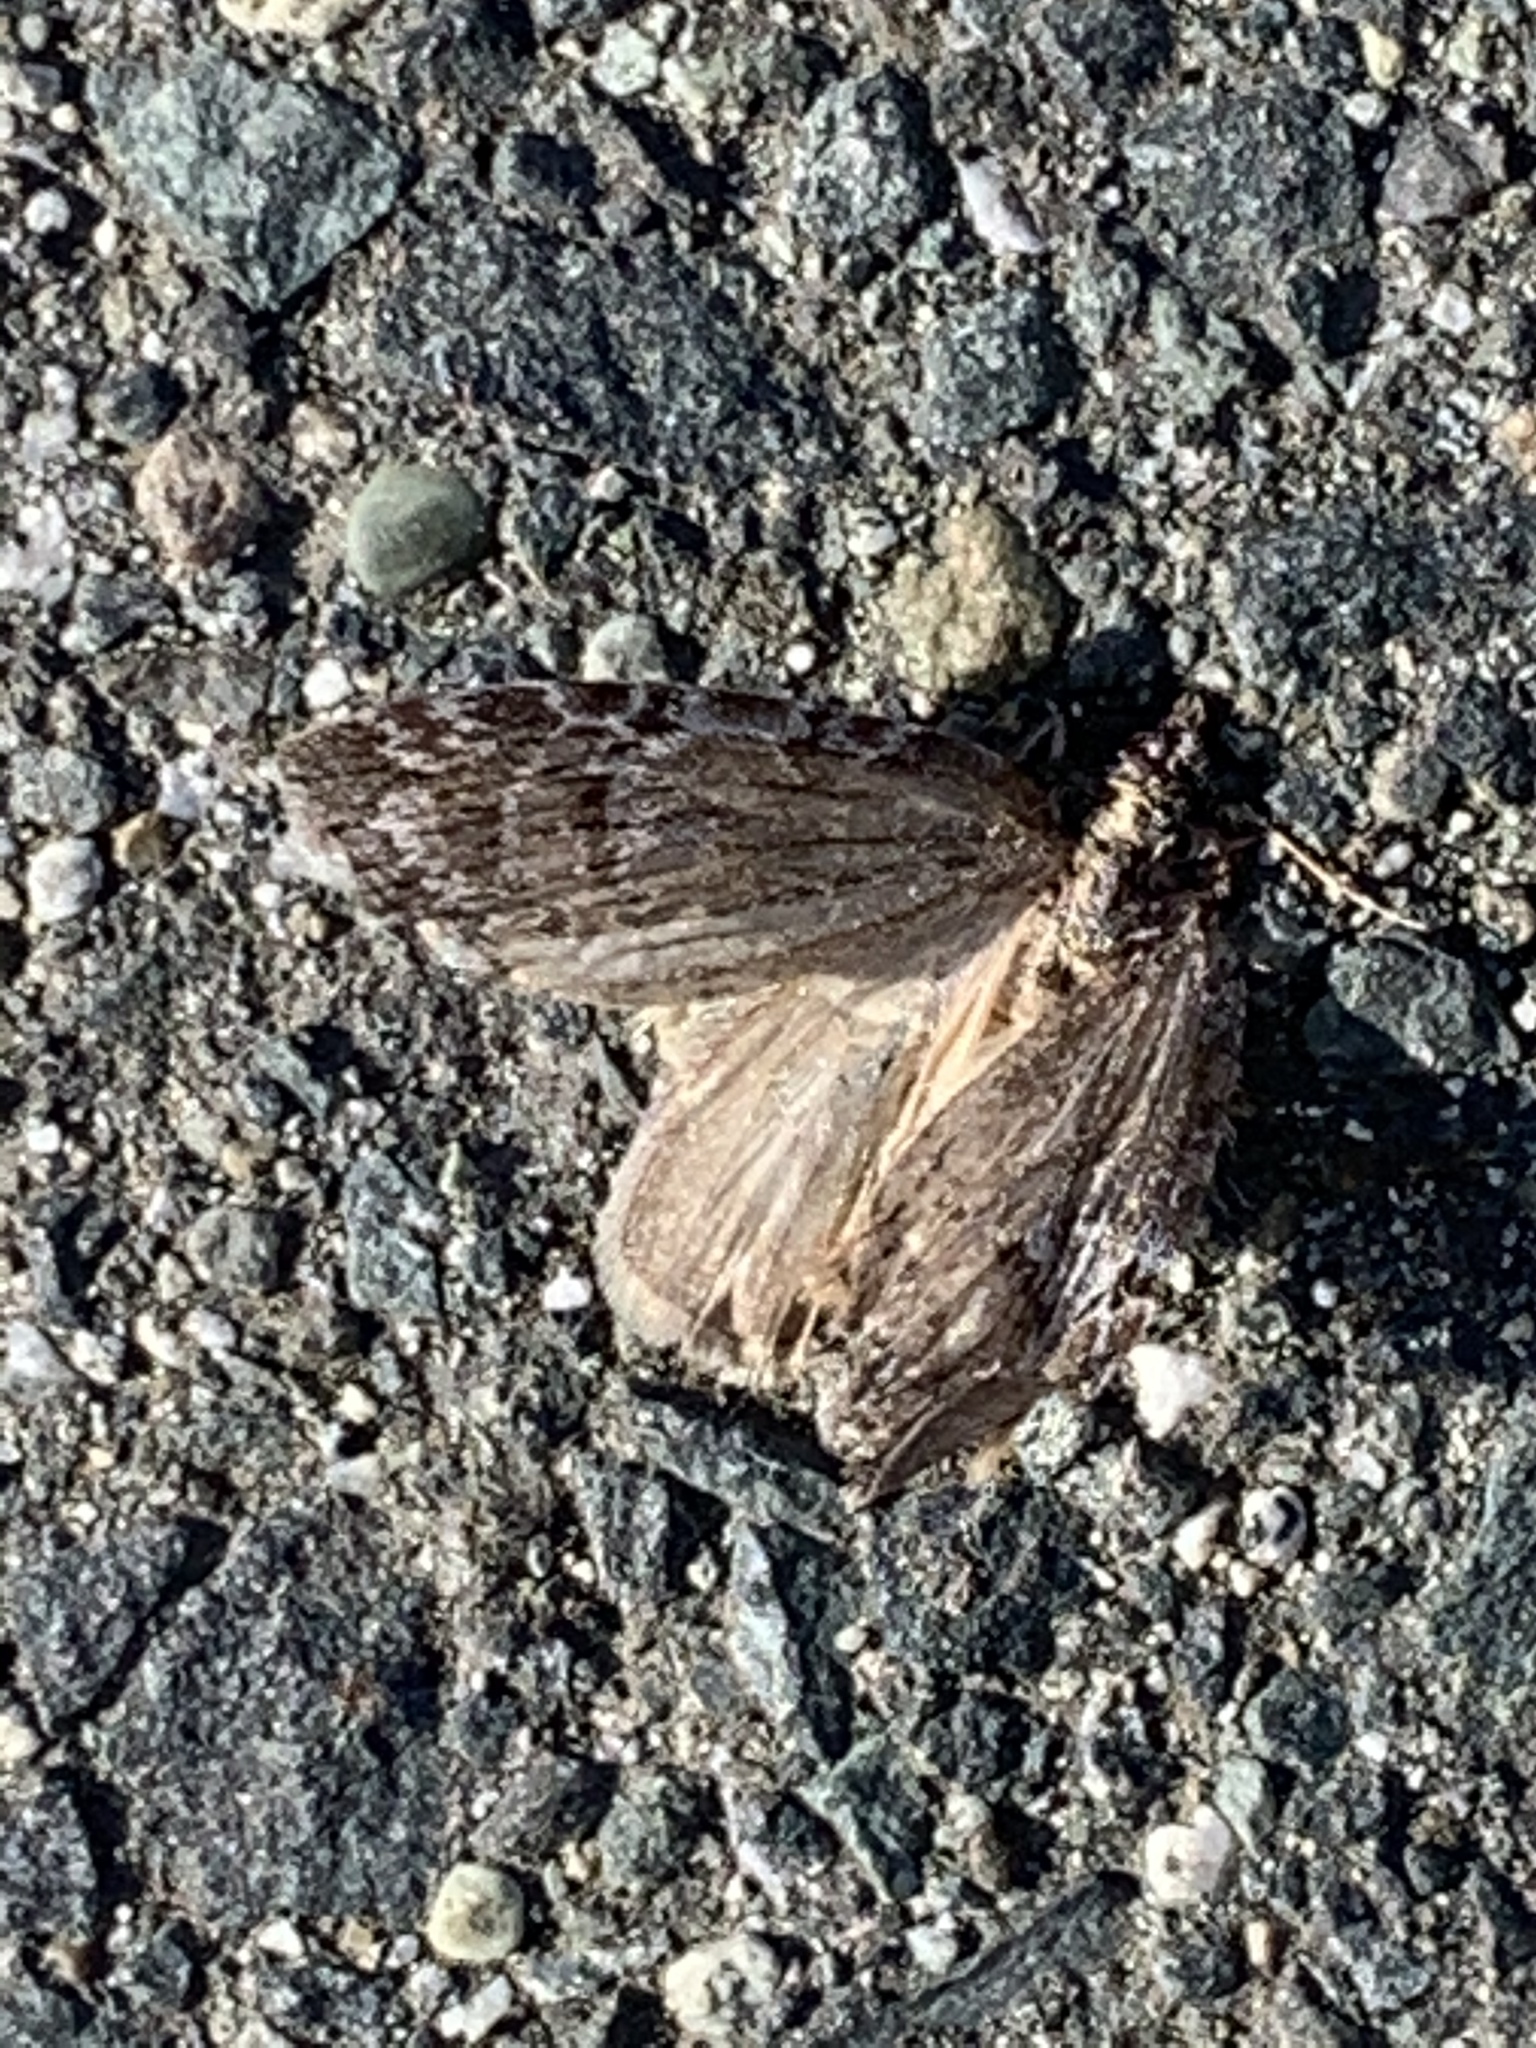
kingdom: Animalia
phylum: Arthropoda
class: Insecta
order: Lepidoptera
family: Geometridae
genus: Hydriomena
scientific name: Hydriomena manzanita
